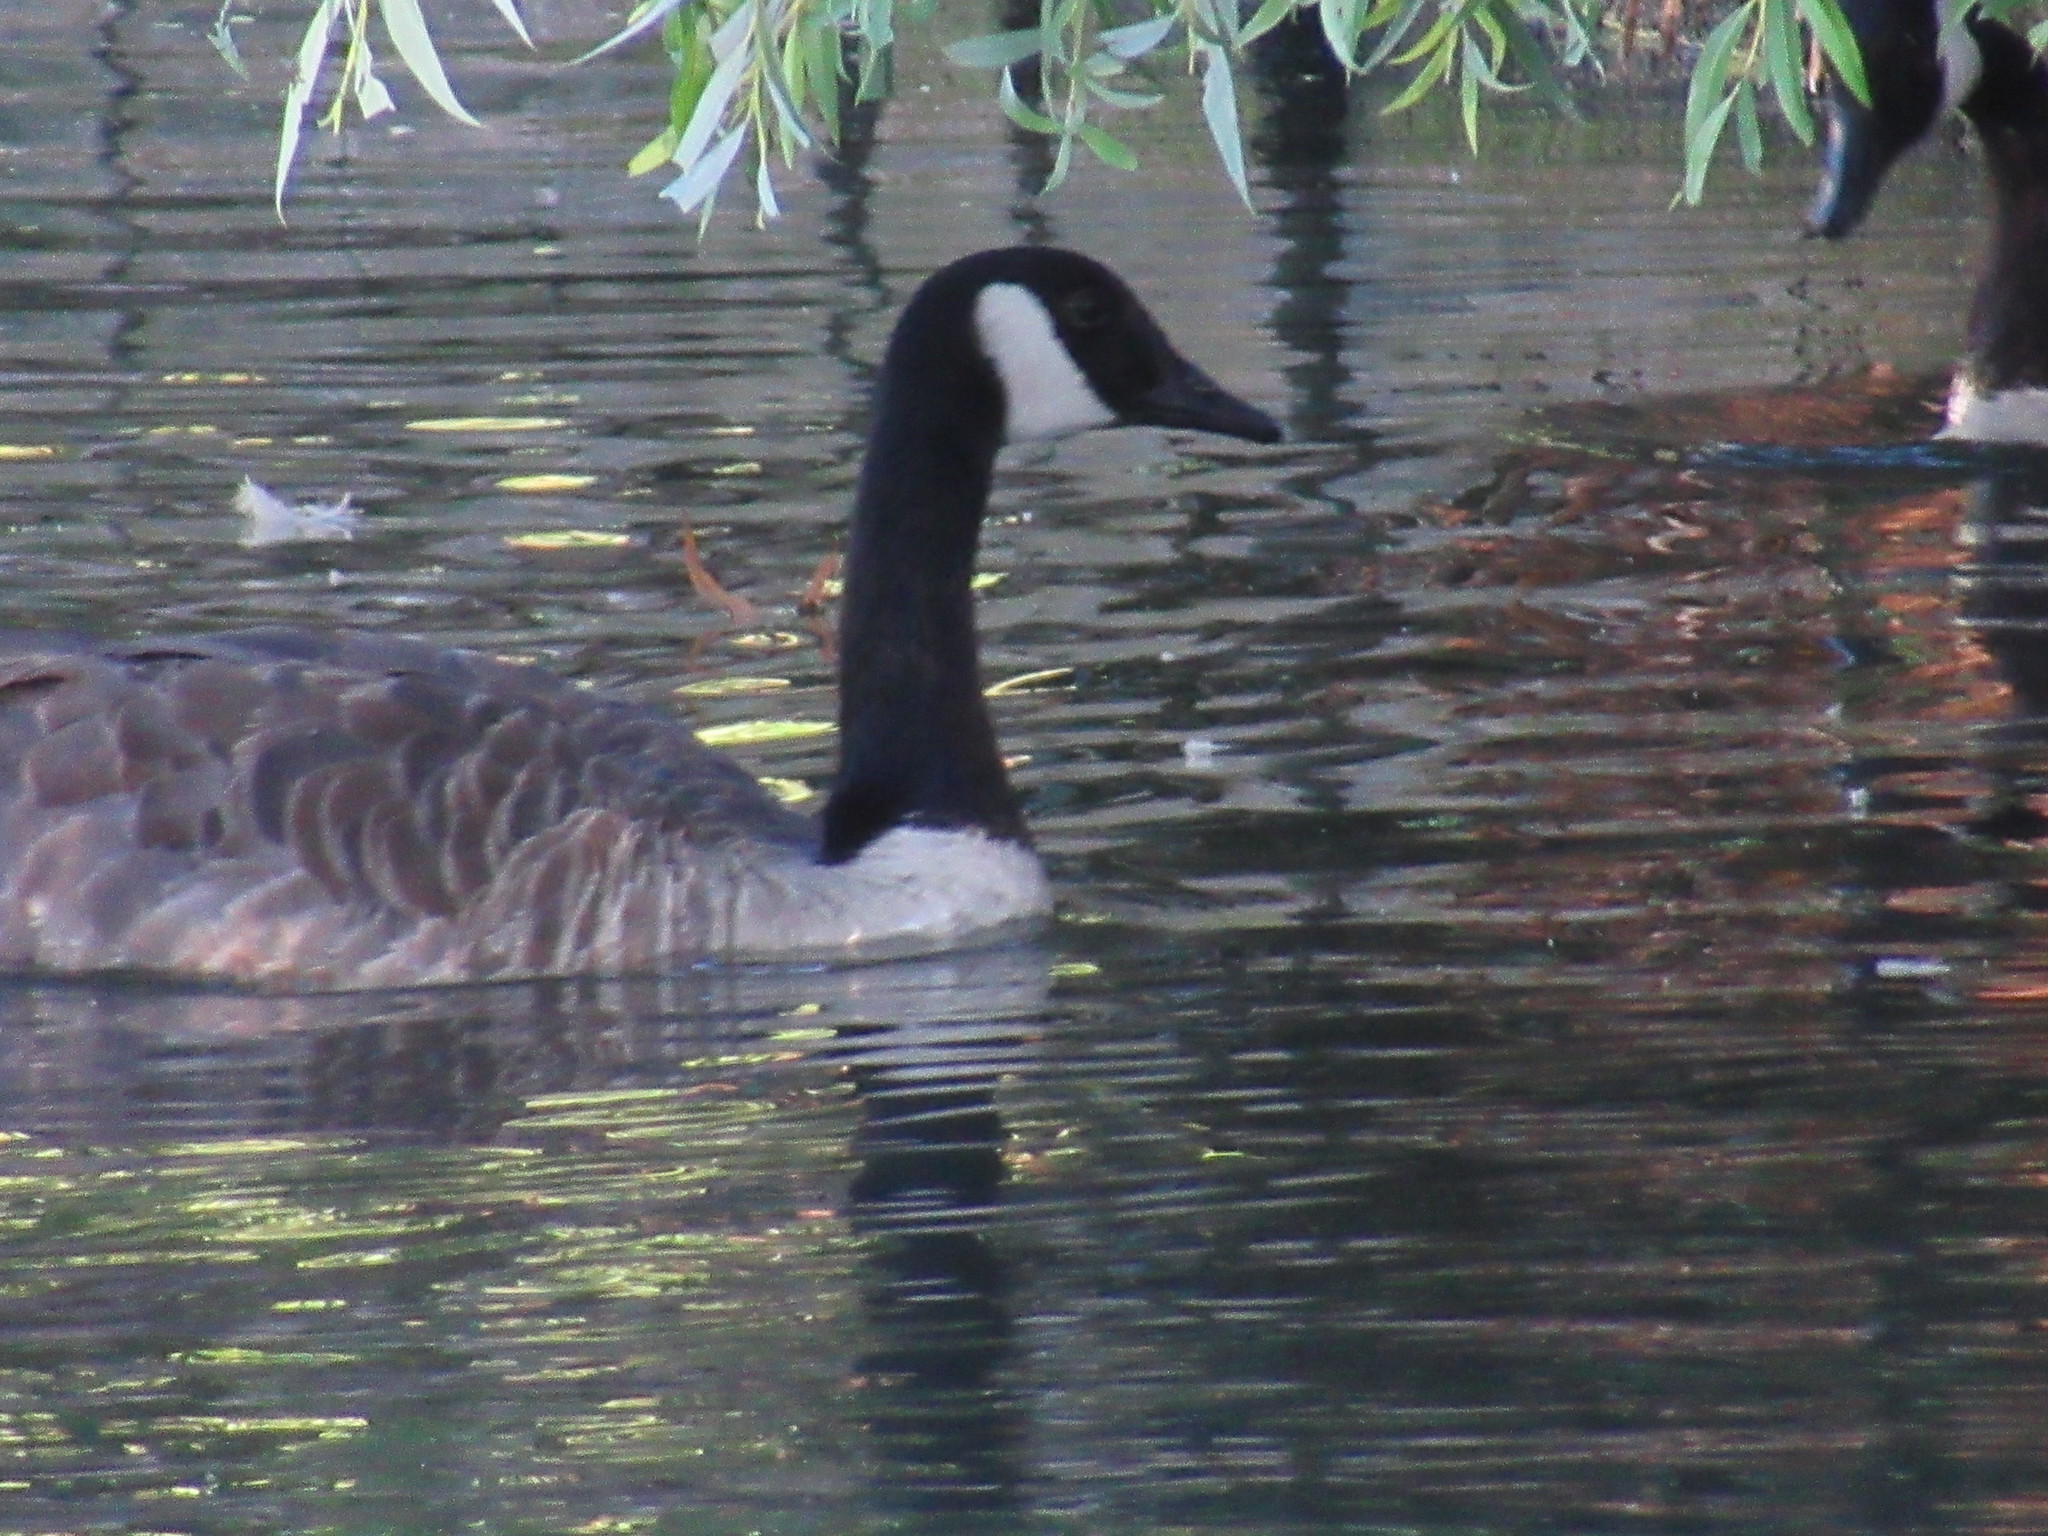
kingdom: Animalia
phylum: Chordata
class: Aves
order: Anseriformes
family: Anatidae
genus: Branta
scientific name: Branta canadensis
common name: Canada goose
